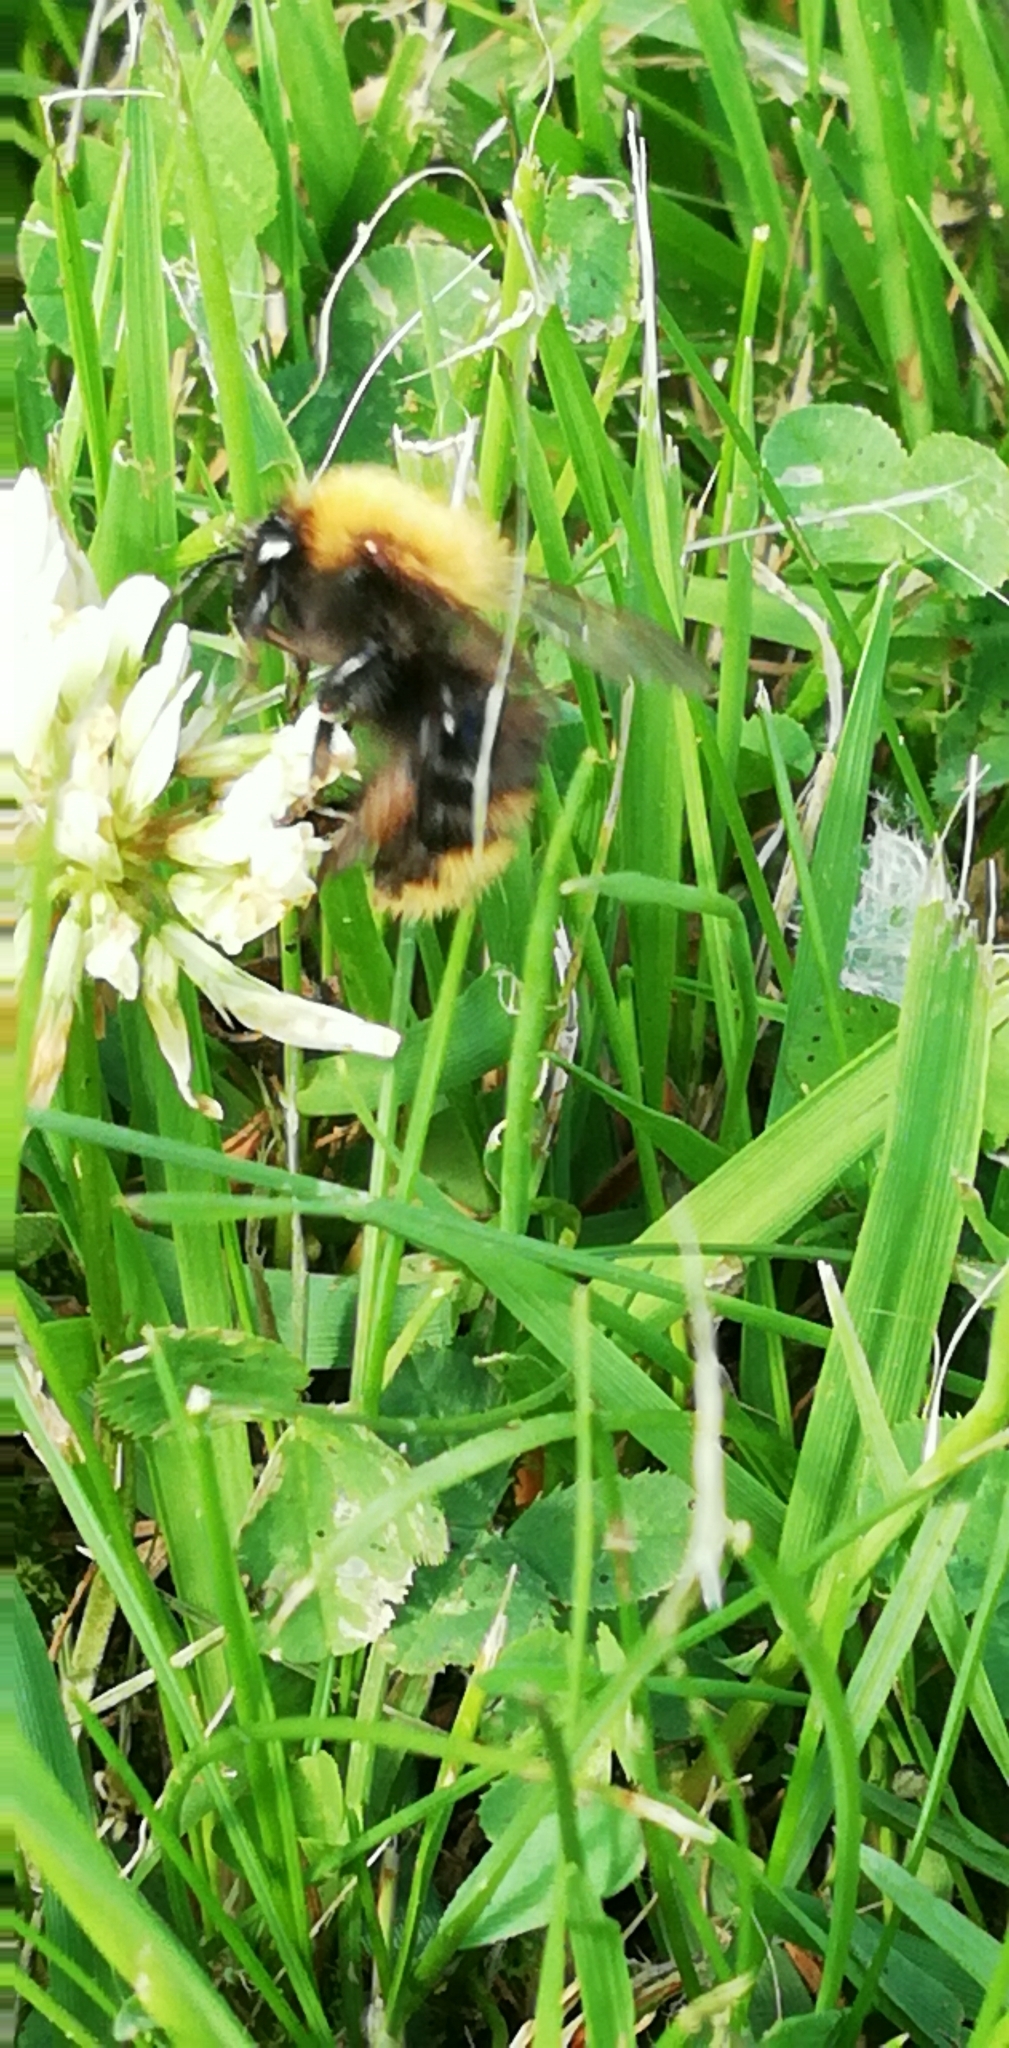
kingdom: Animalia
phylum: Arthropoda
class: Insecta
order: Hymenoptera
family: Apidae
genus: Bombus
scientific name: Bombus pascuorum
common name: Common carder bee
